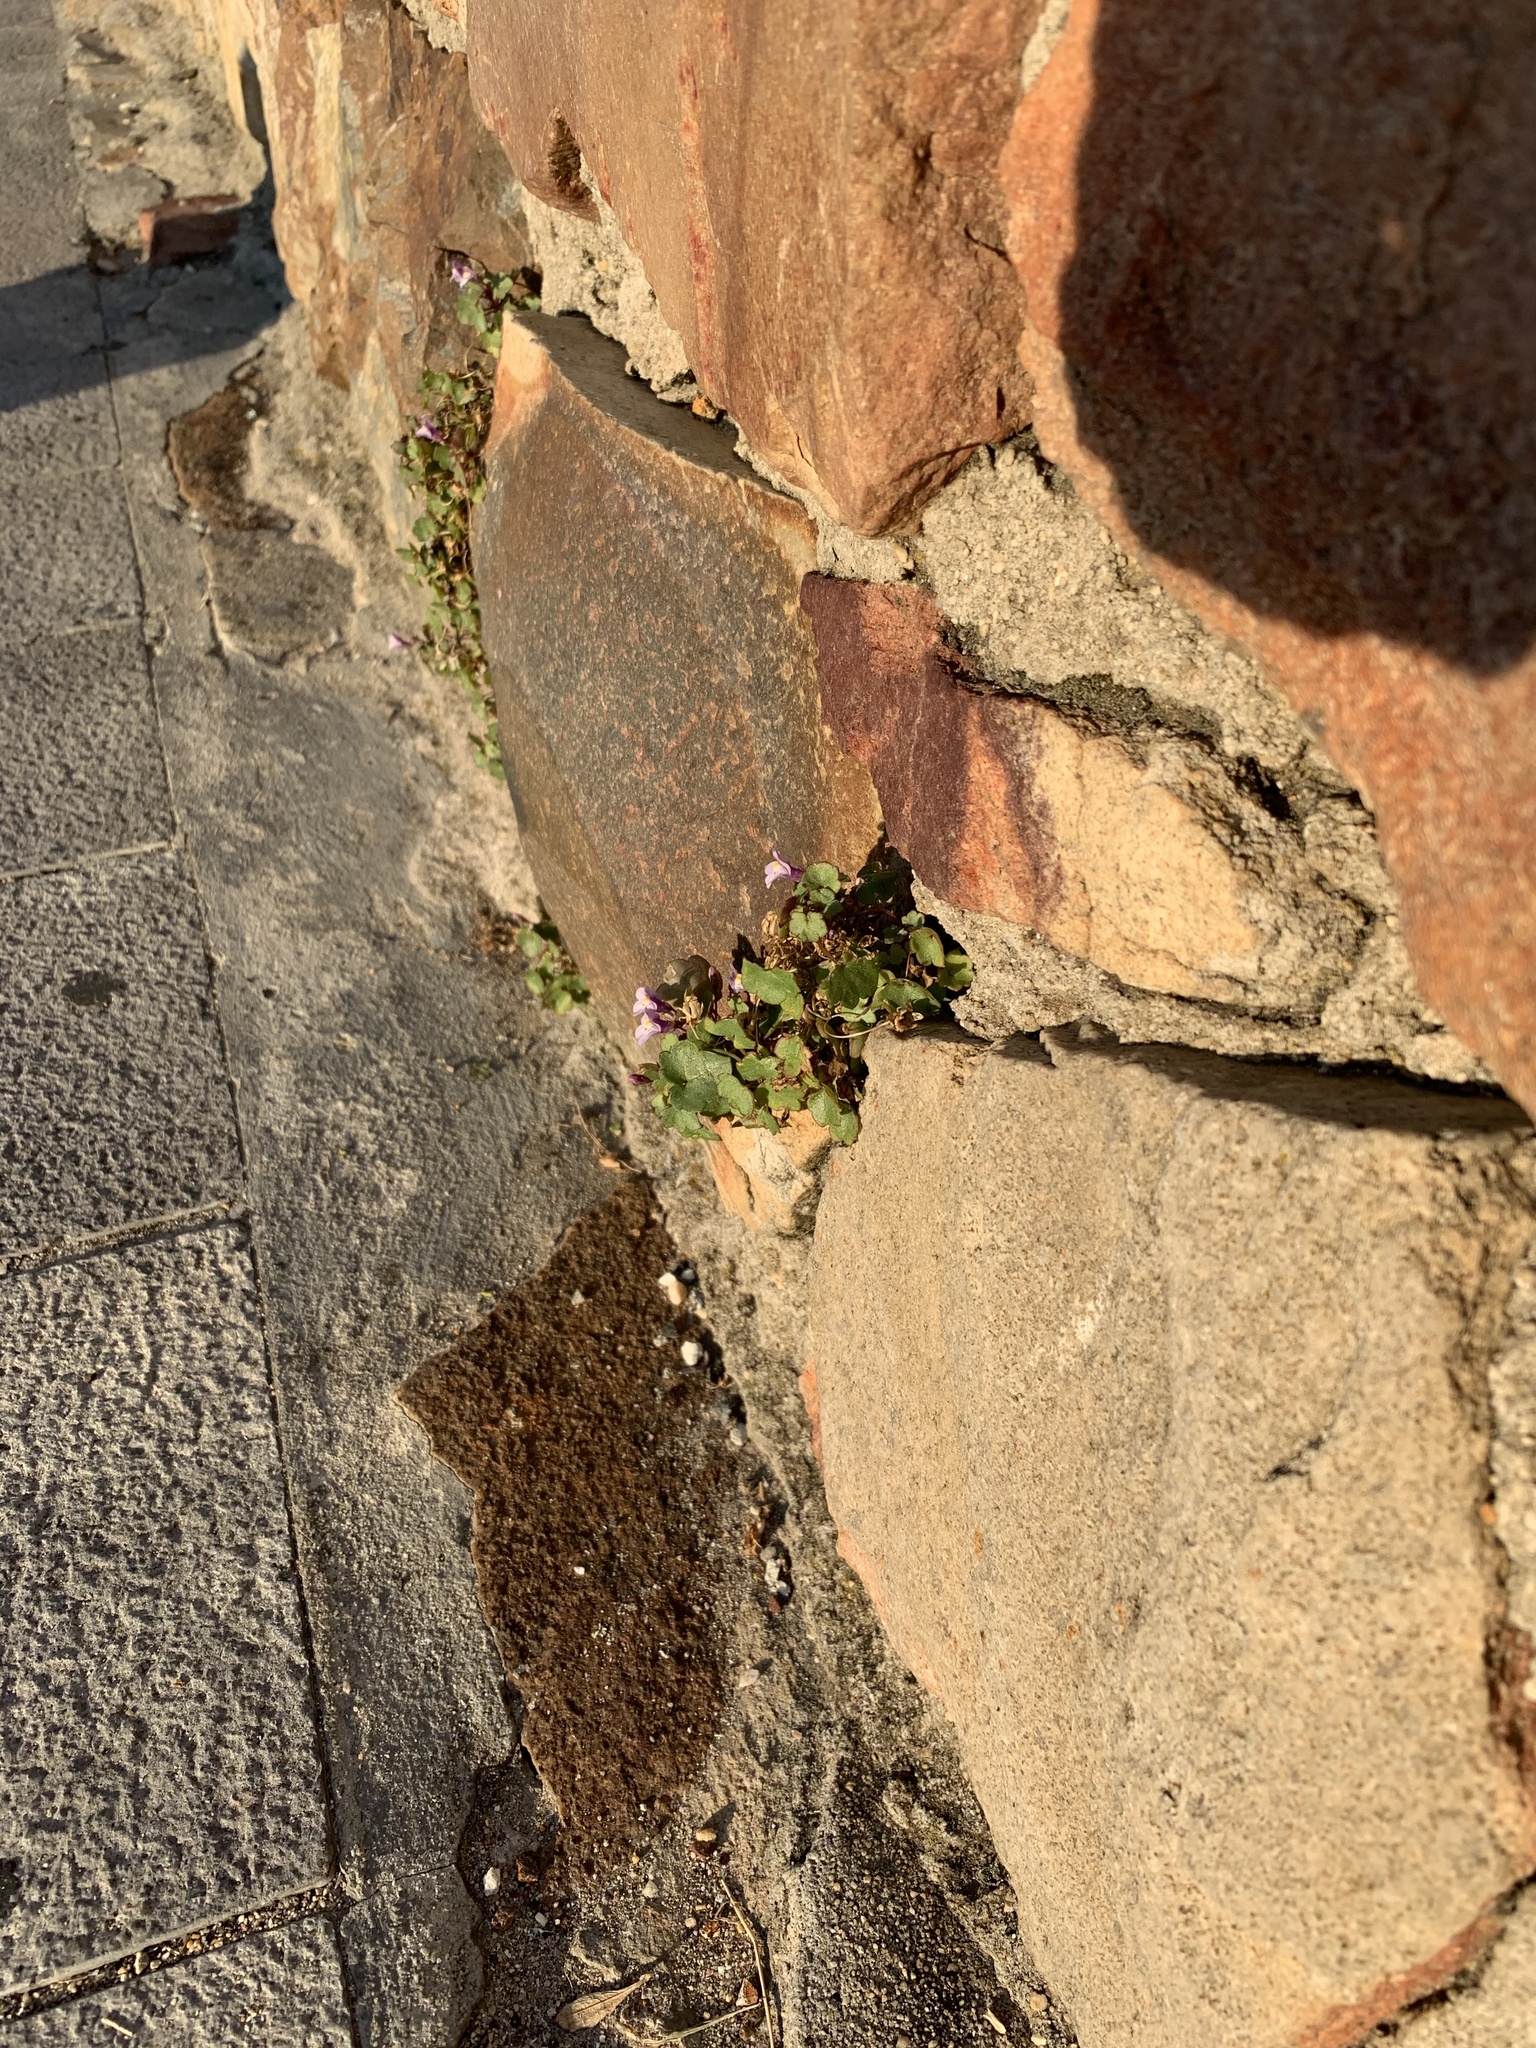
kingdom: Plantae
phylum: Tracheophyta
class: Magnoliopsida
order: Lamiales
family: Plantaginaceae
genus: Cymbalaria
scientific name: Cymbalaria muralis
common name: Ivy-leaved toadflax
